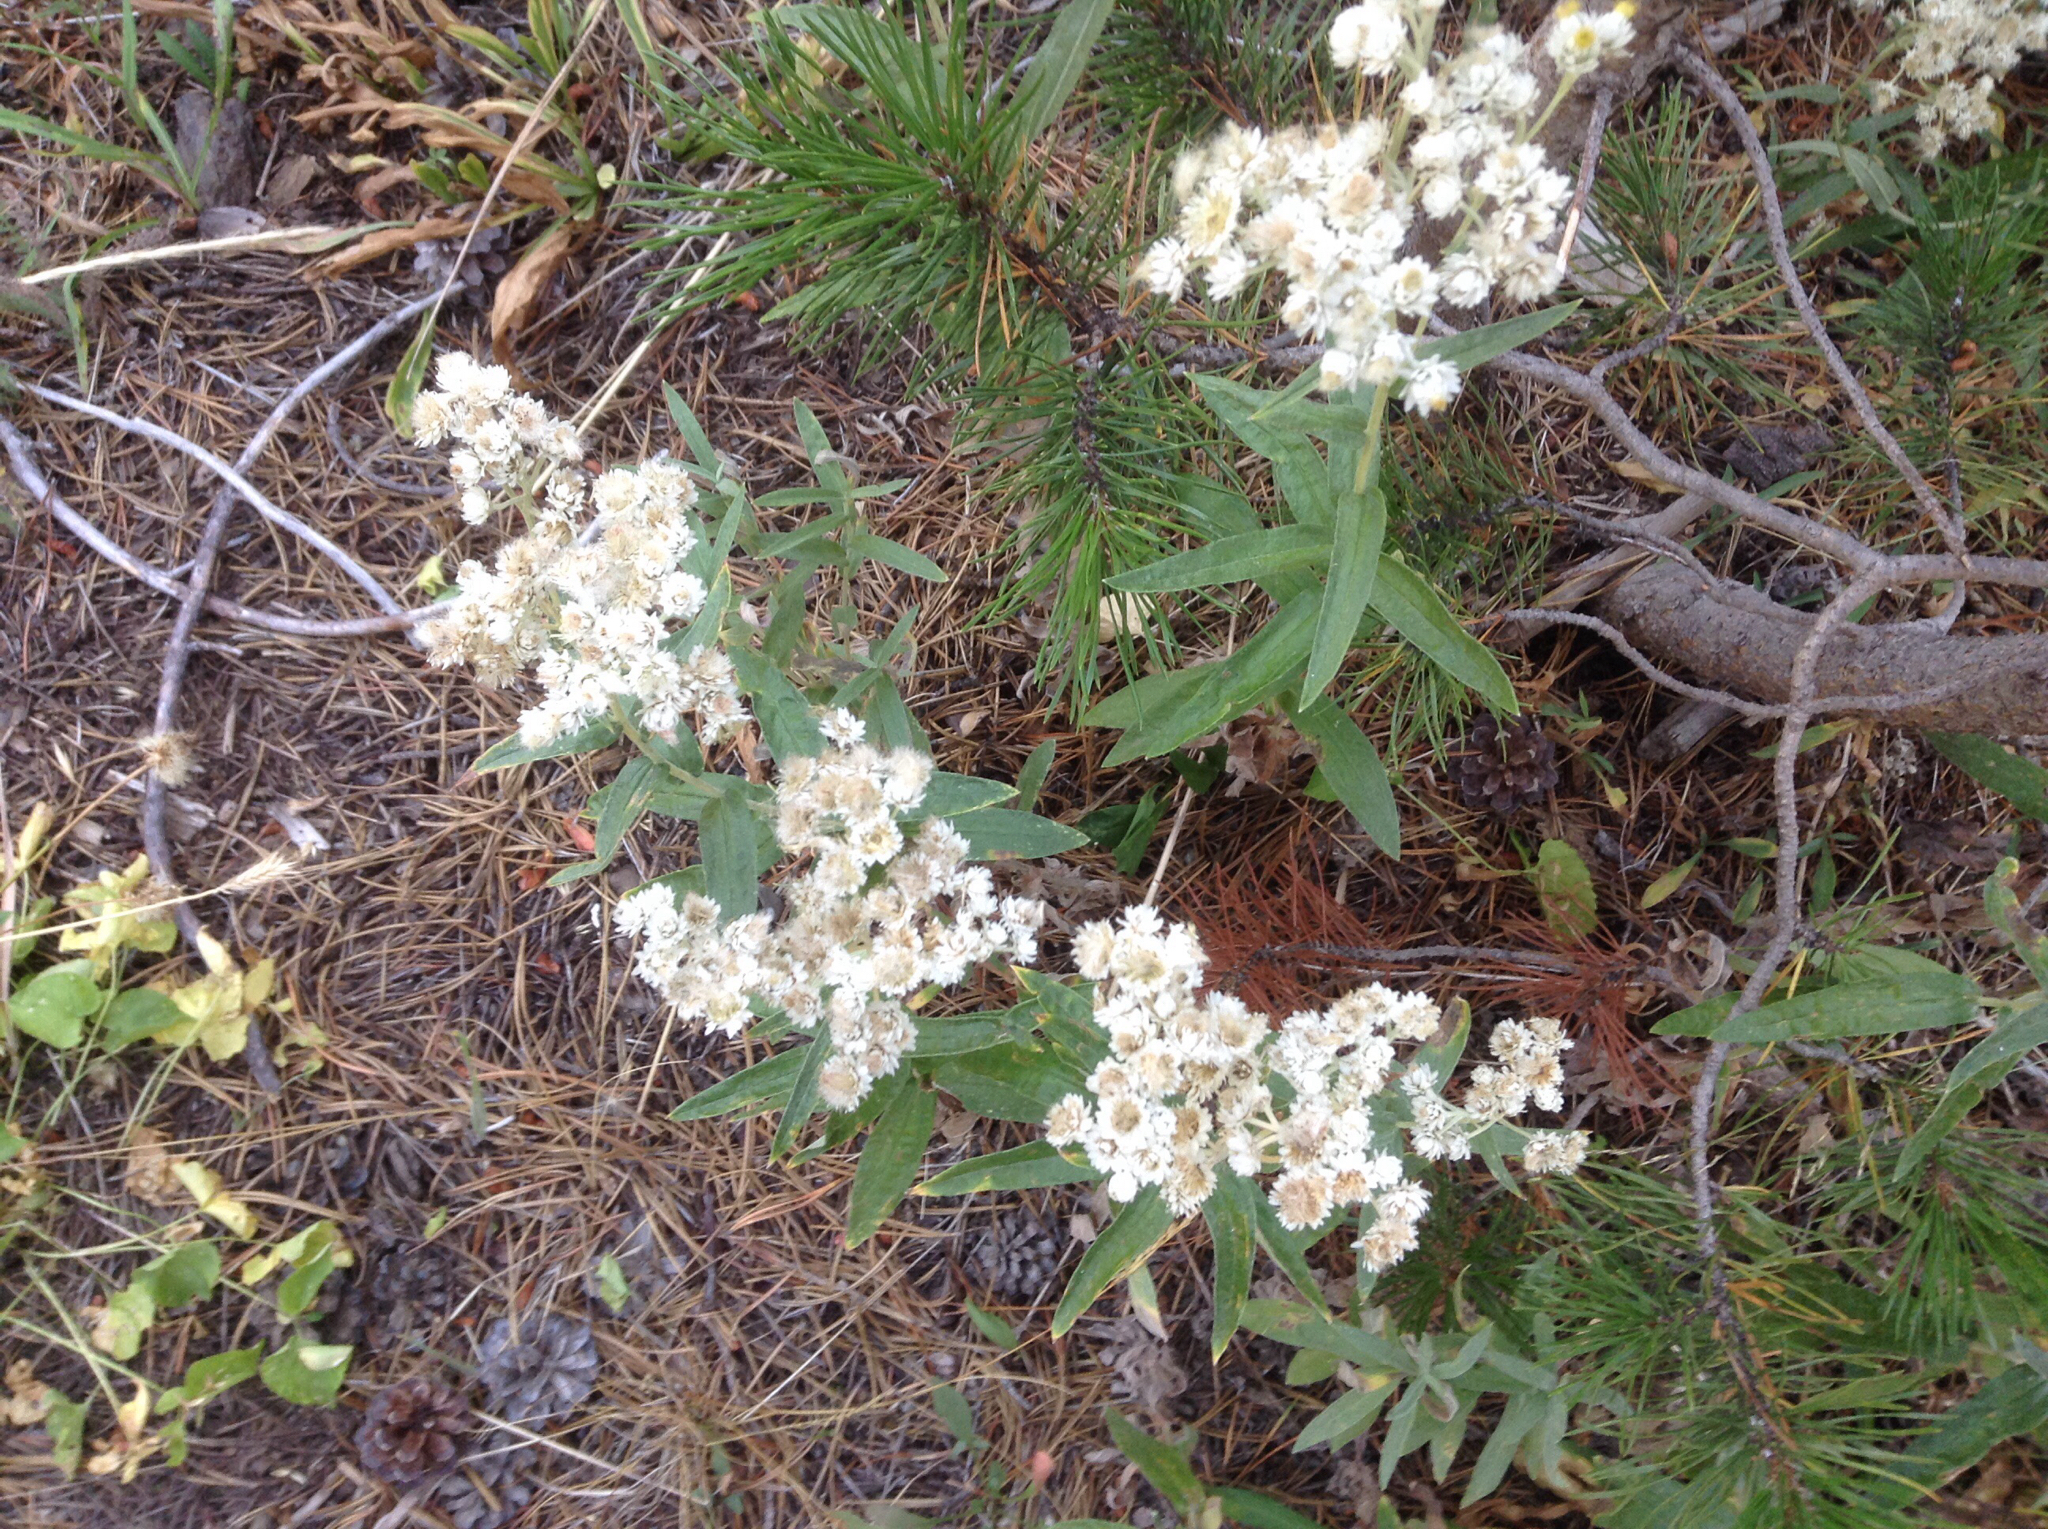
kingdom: Plantae
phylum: Tracheophyta
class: Magnoliopsida
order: Asterales
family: Asteraceae
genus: Anaphalis
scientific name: Anaphalis margaritacea
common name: Pearly everlasting
